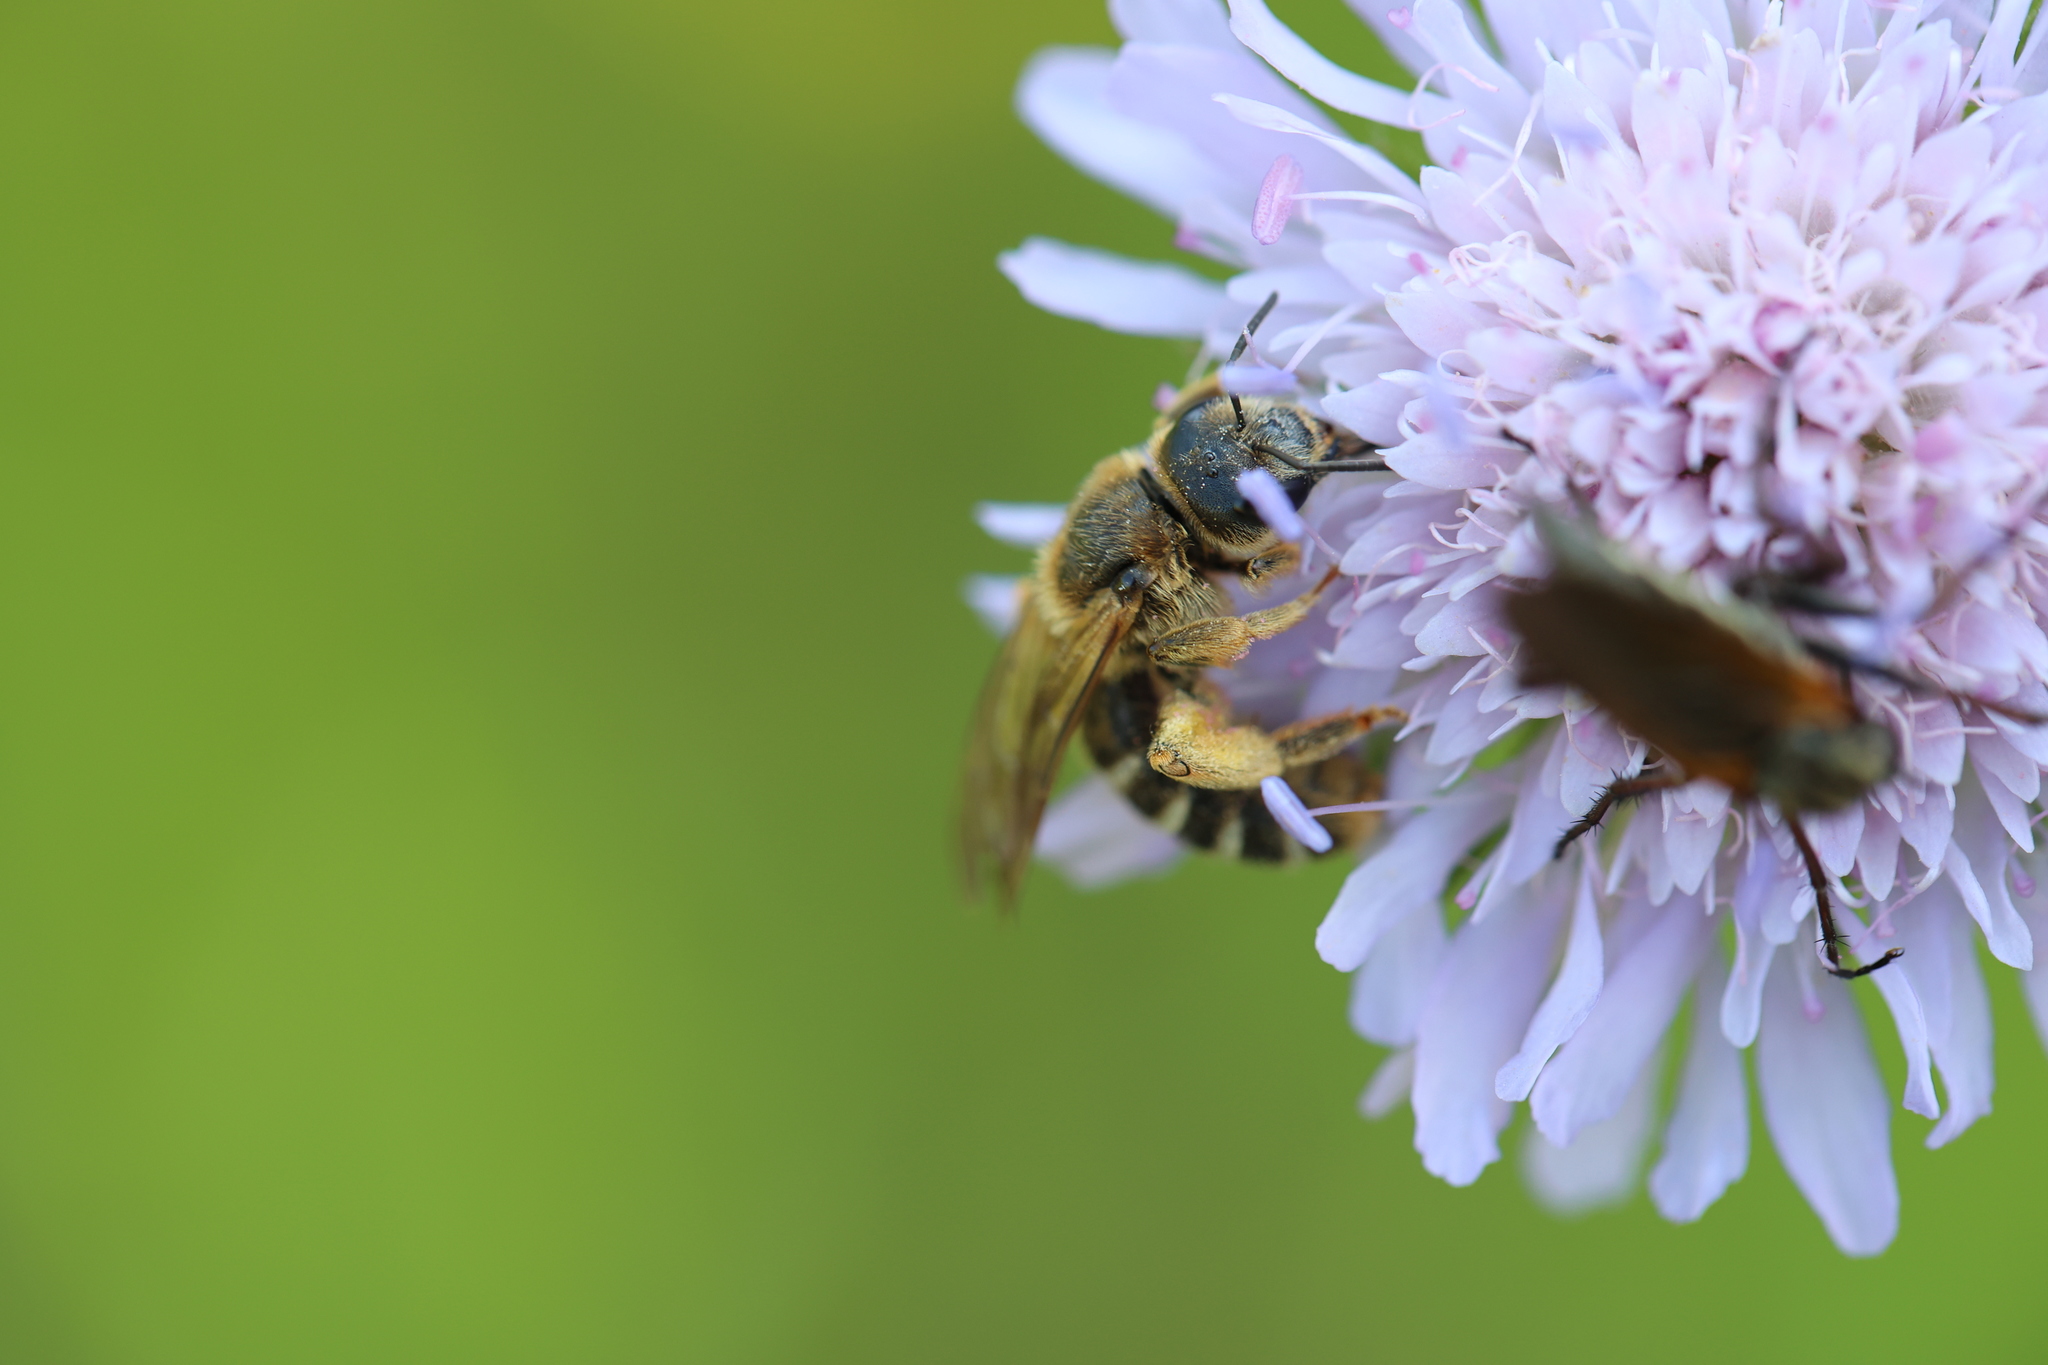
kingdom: Animalia
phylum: Arthropoda
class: Insecta
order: Hymenoptera
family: Halictidae
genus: Halictus
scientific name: Halictus scabiosae
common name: Great banded furrow bee
